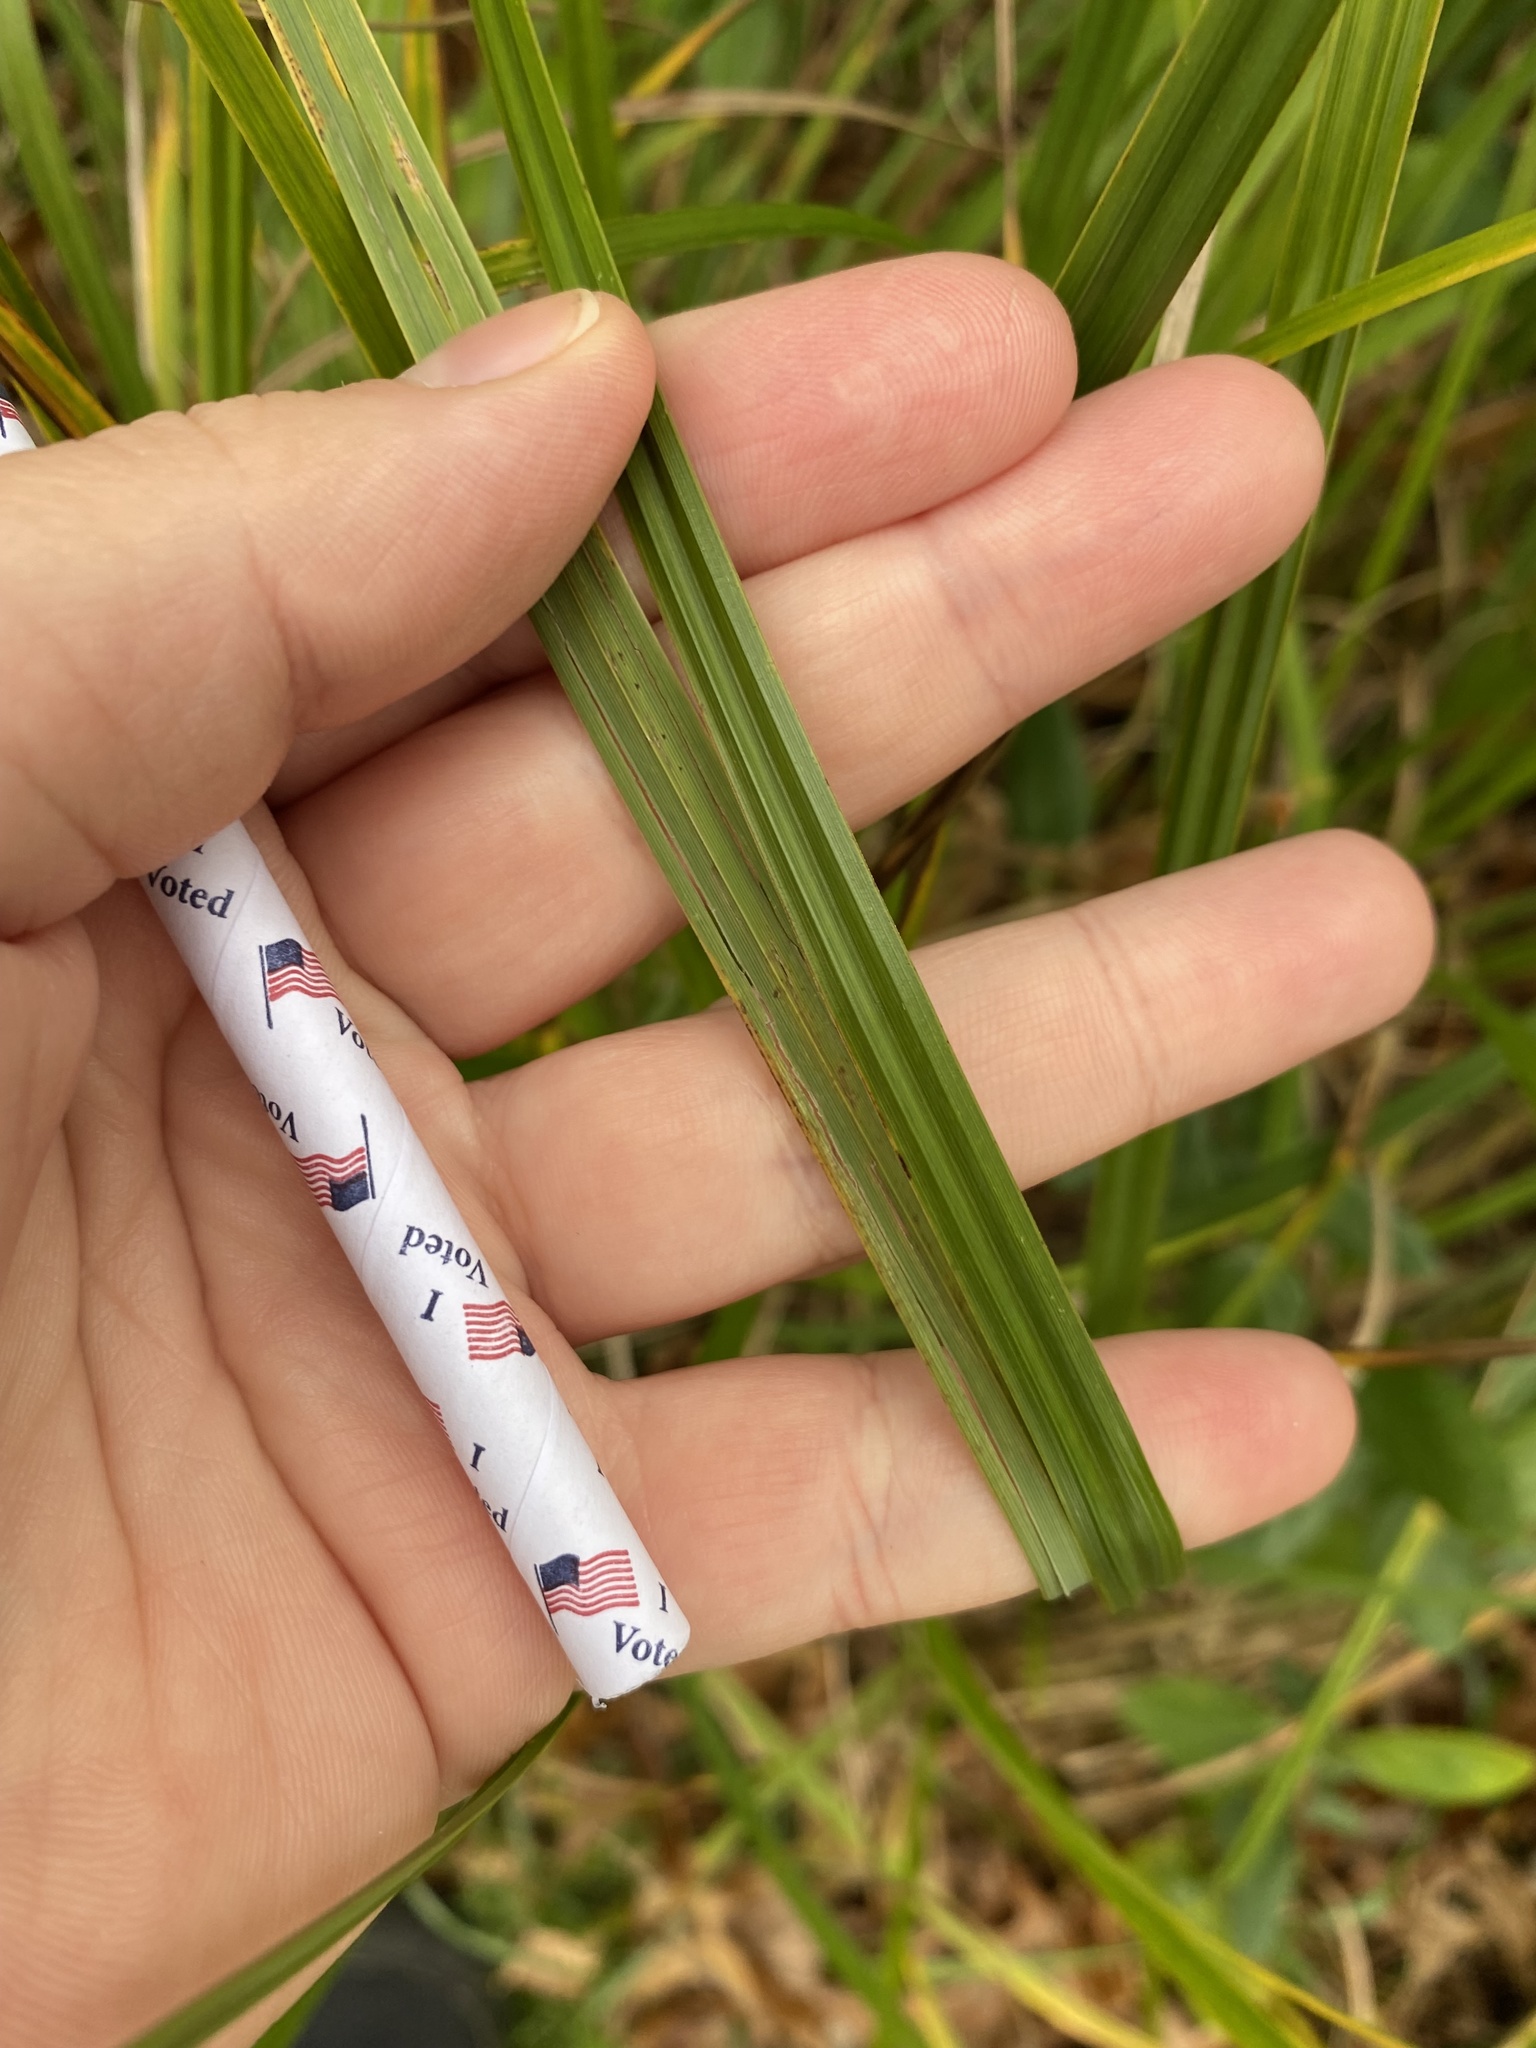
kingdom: Plantae
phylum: Tracheophyta
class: Liliopsida
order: Poales
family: Cyperaceae
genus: Carex
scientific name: Carex
